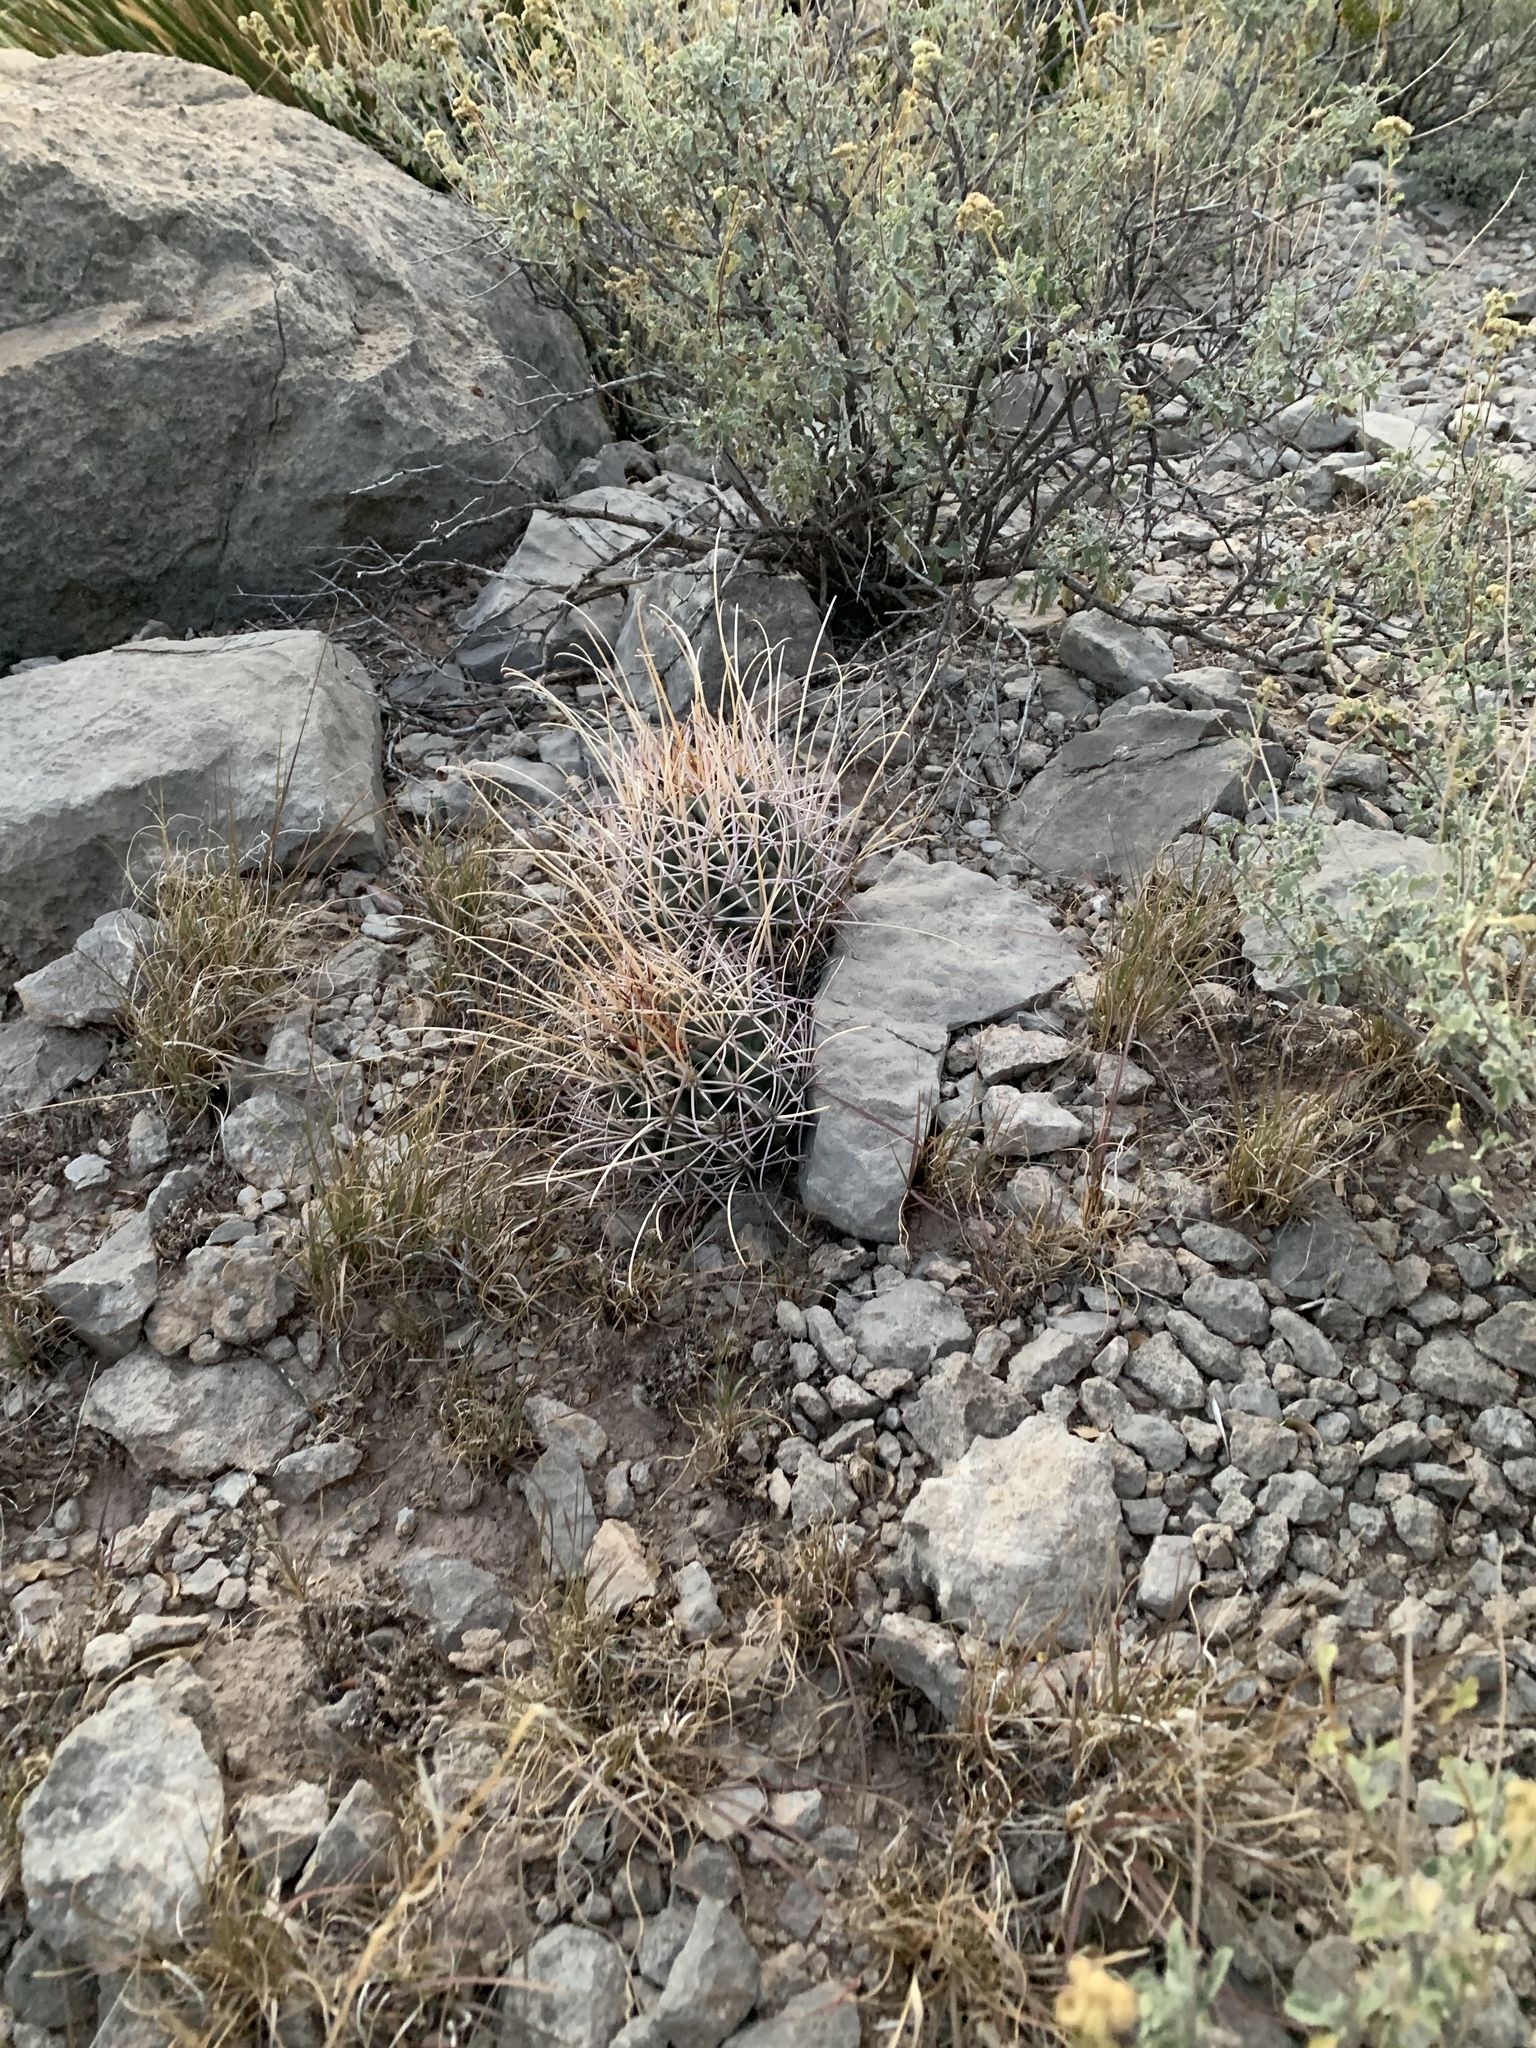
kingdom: Plantae
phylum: Tracheophyta
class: Magnoliopsida
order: Caryophyllales
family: Cactaceae
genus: Ferocactus
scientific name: Ferocactus uncinatus
